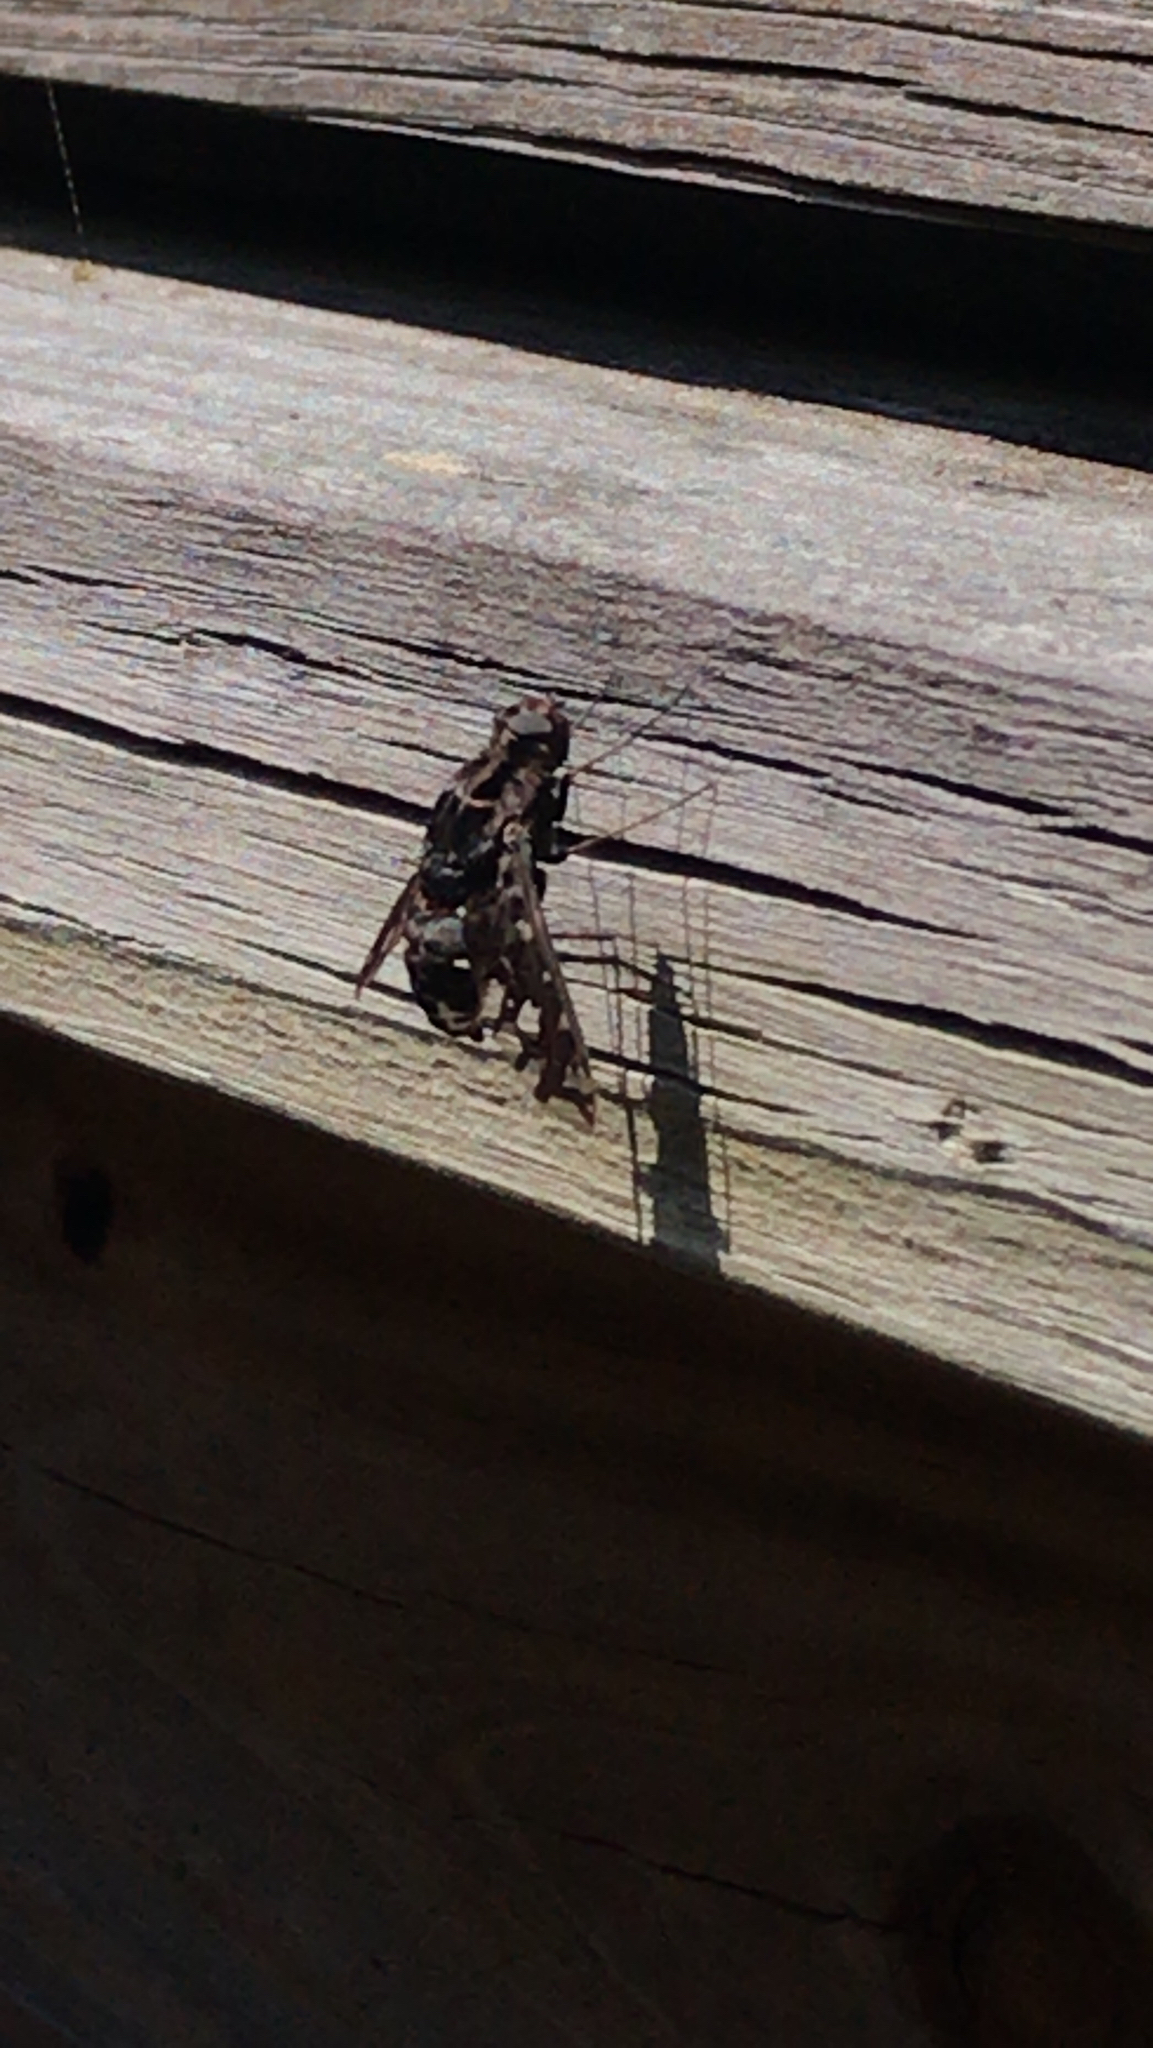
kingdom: Animalia
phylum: Arthropoda
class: Insecta
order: Diptera
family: Bombyliidae
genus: Xenox
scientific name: Xenox tigrinus
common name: Tiger bee fly
